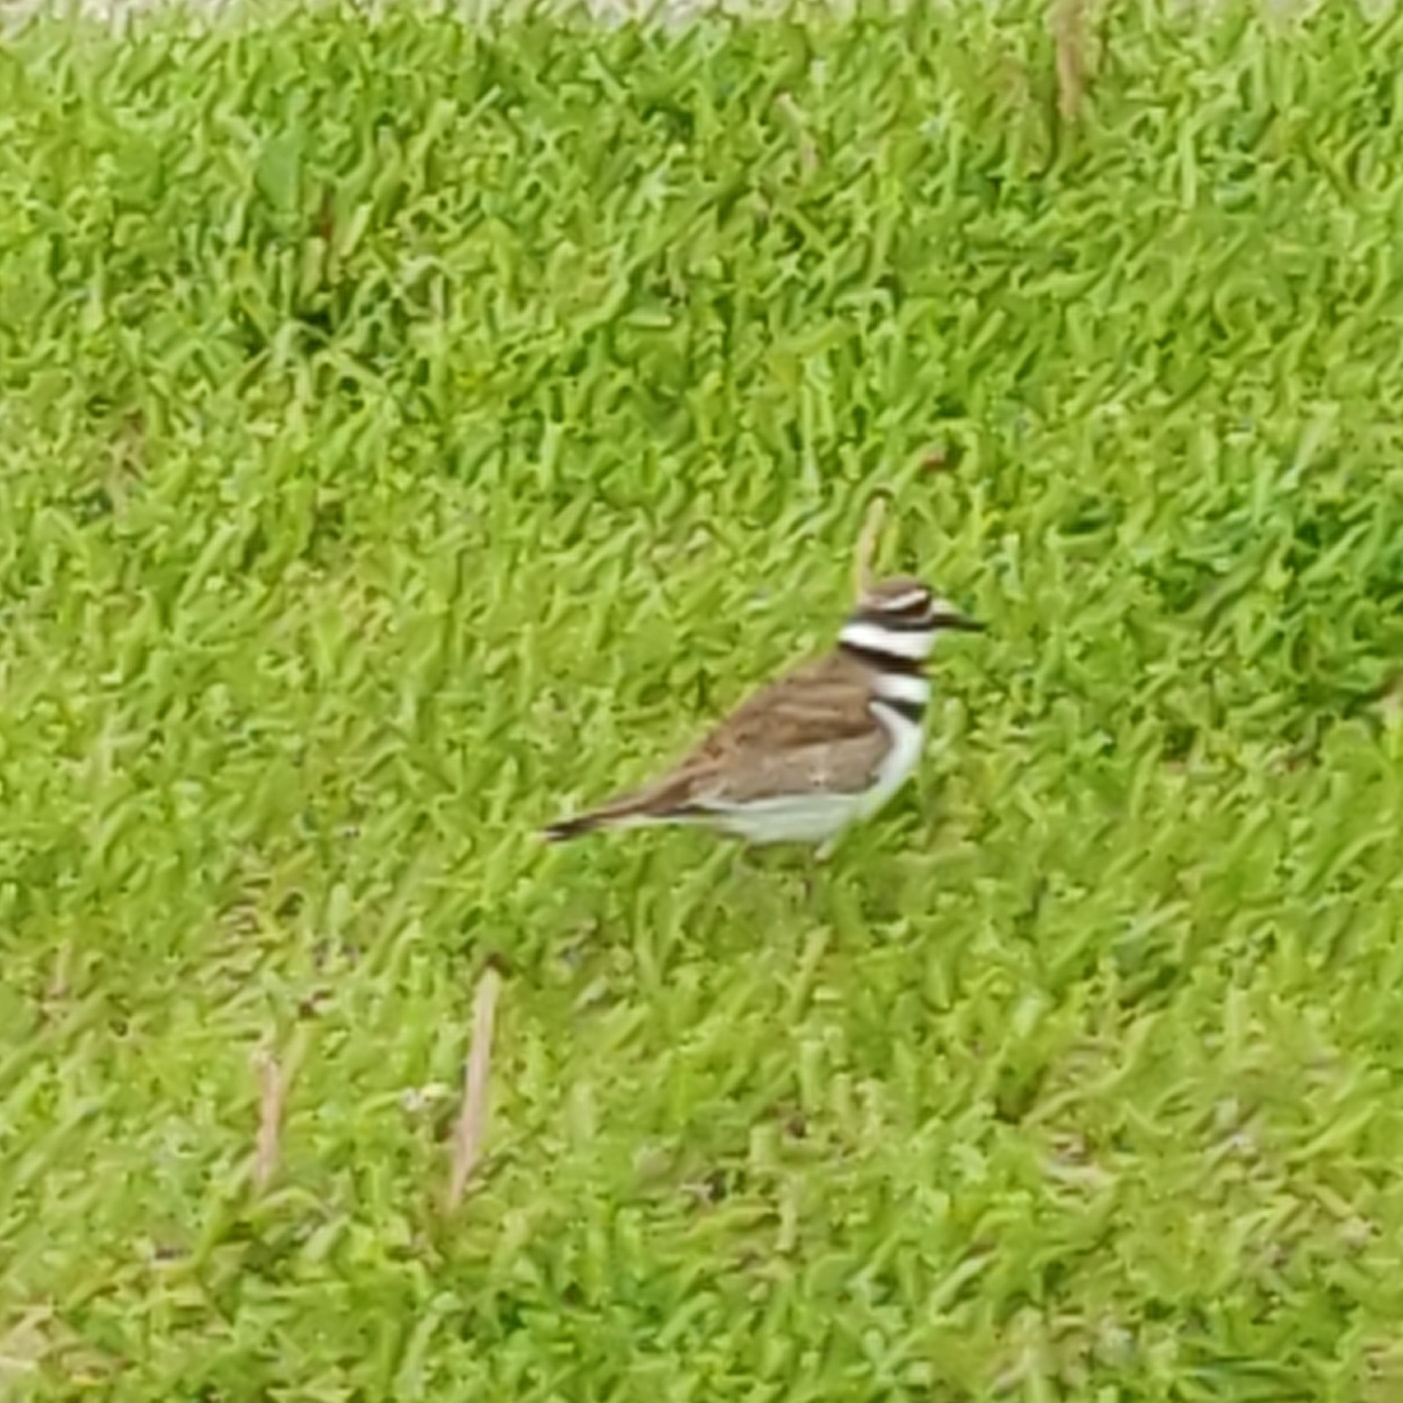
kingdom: Animalia
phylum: Chordata
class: Aves
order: Charadriiformes
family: Charadriidae
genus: Charadrius
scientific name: Charadrius vociferus
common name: Killdeer
